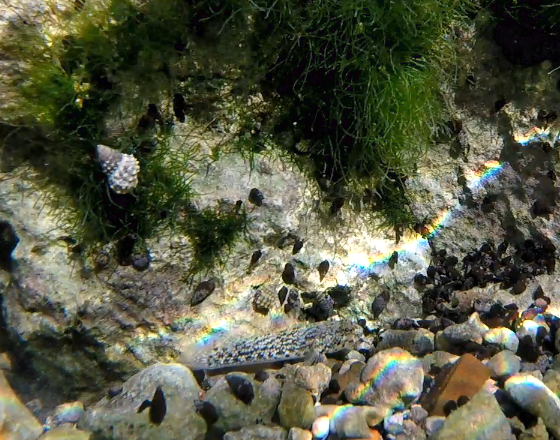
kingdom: Animalia
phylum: Chordata
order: Perciformes
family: Gobiidae
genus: Bathygobius
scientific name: Bathygobius
